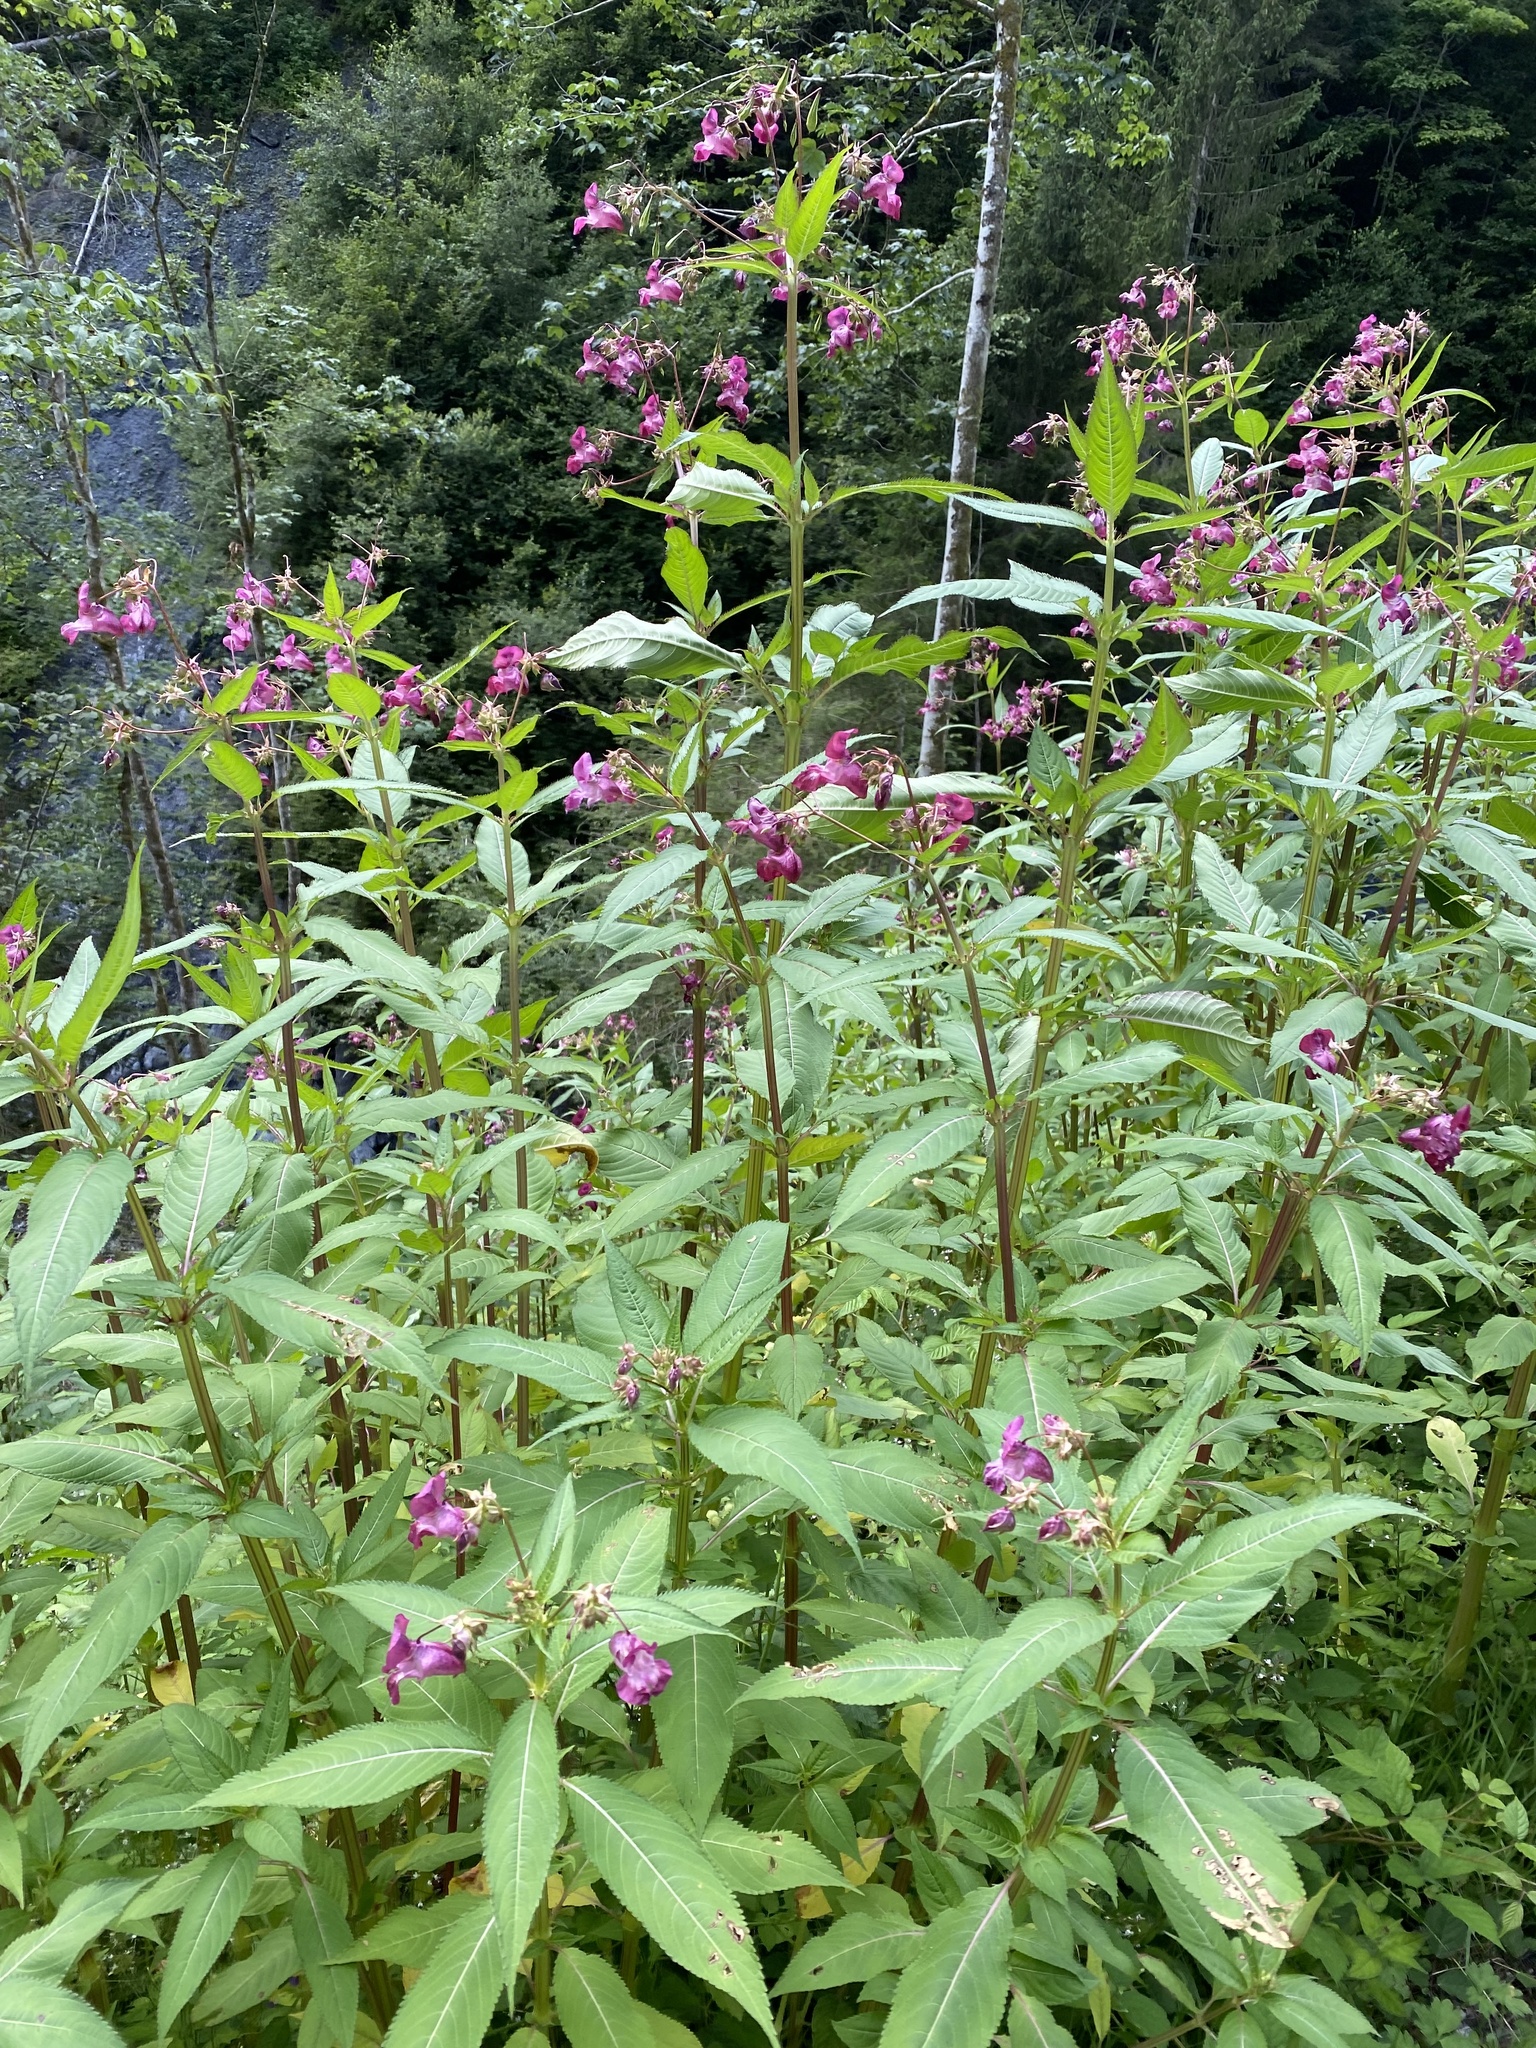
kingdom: Plantae
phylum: Tracheophyta
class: Magnoliopsida
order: Ericales
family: Balsaminaceae
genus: Impatiens
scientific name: Impatiens glandulifera
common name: Himalayan balsam
